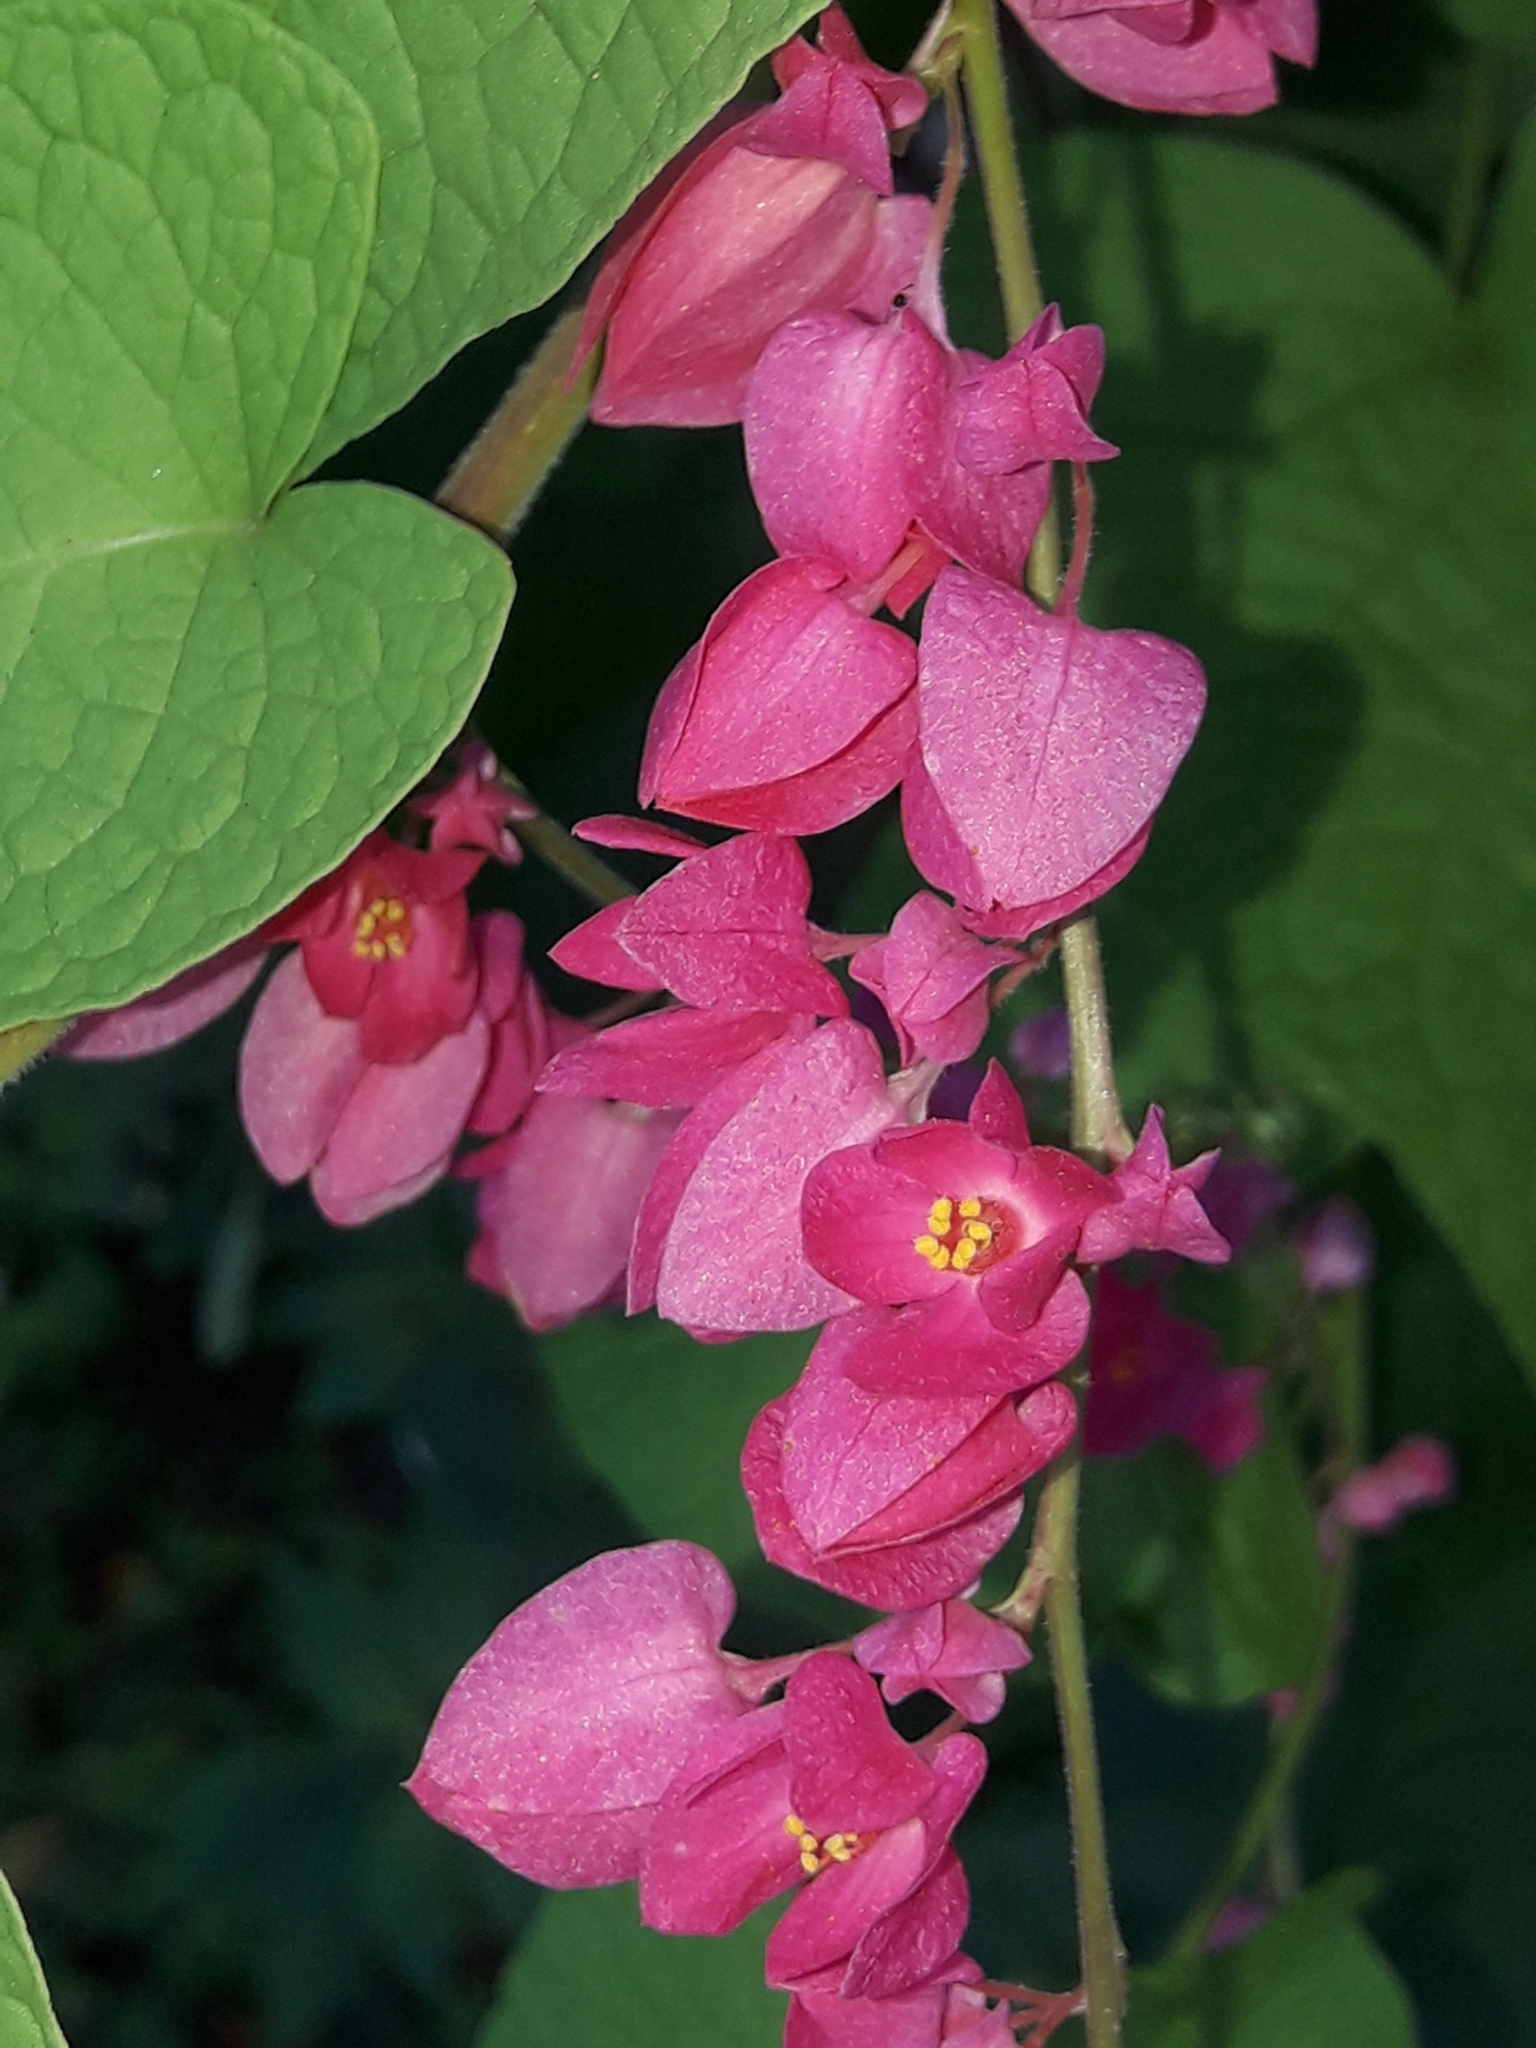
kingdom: Plantae
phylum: Tracheophyta
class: Magnoliopsida
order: Caryophyllales
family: Polygonaceae
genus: Antigonon
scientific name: Antigonon leptopus
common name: Coral vine
